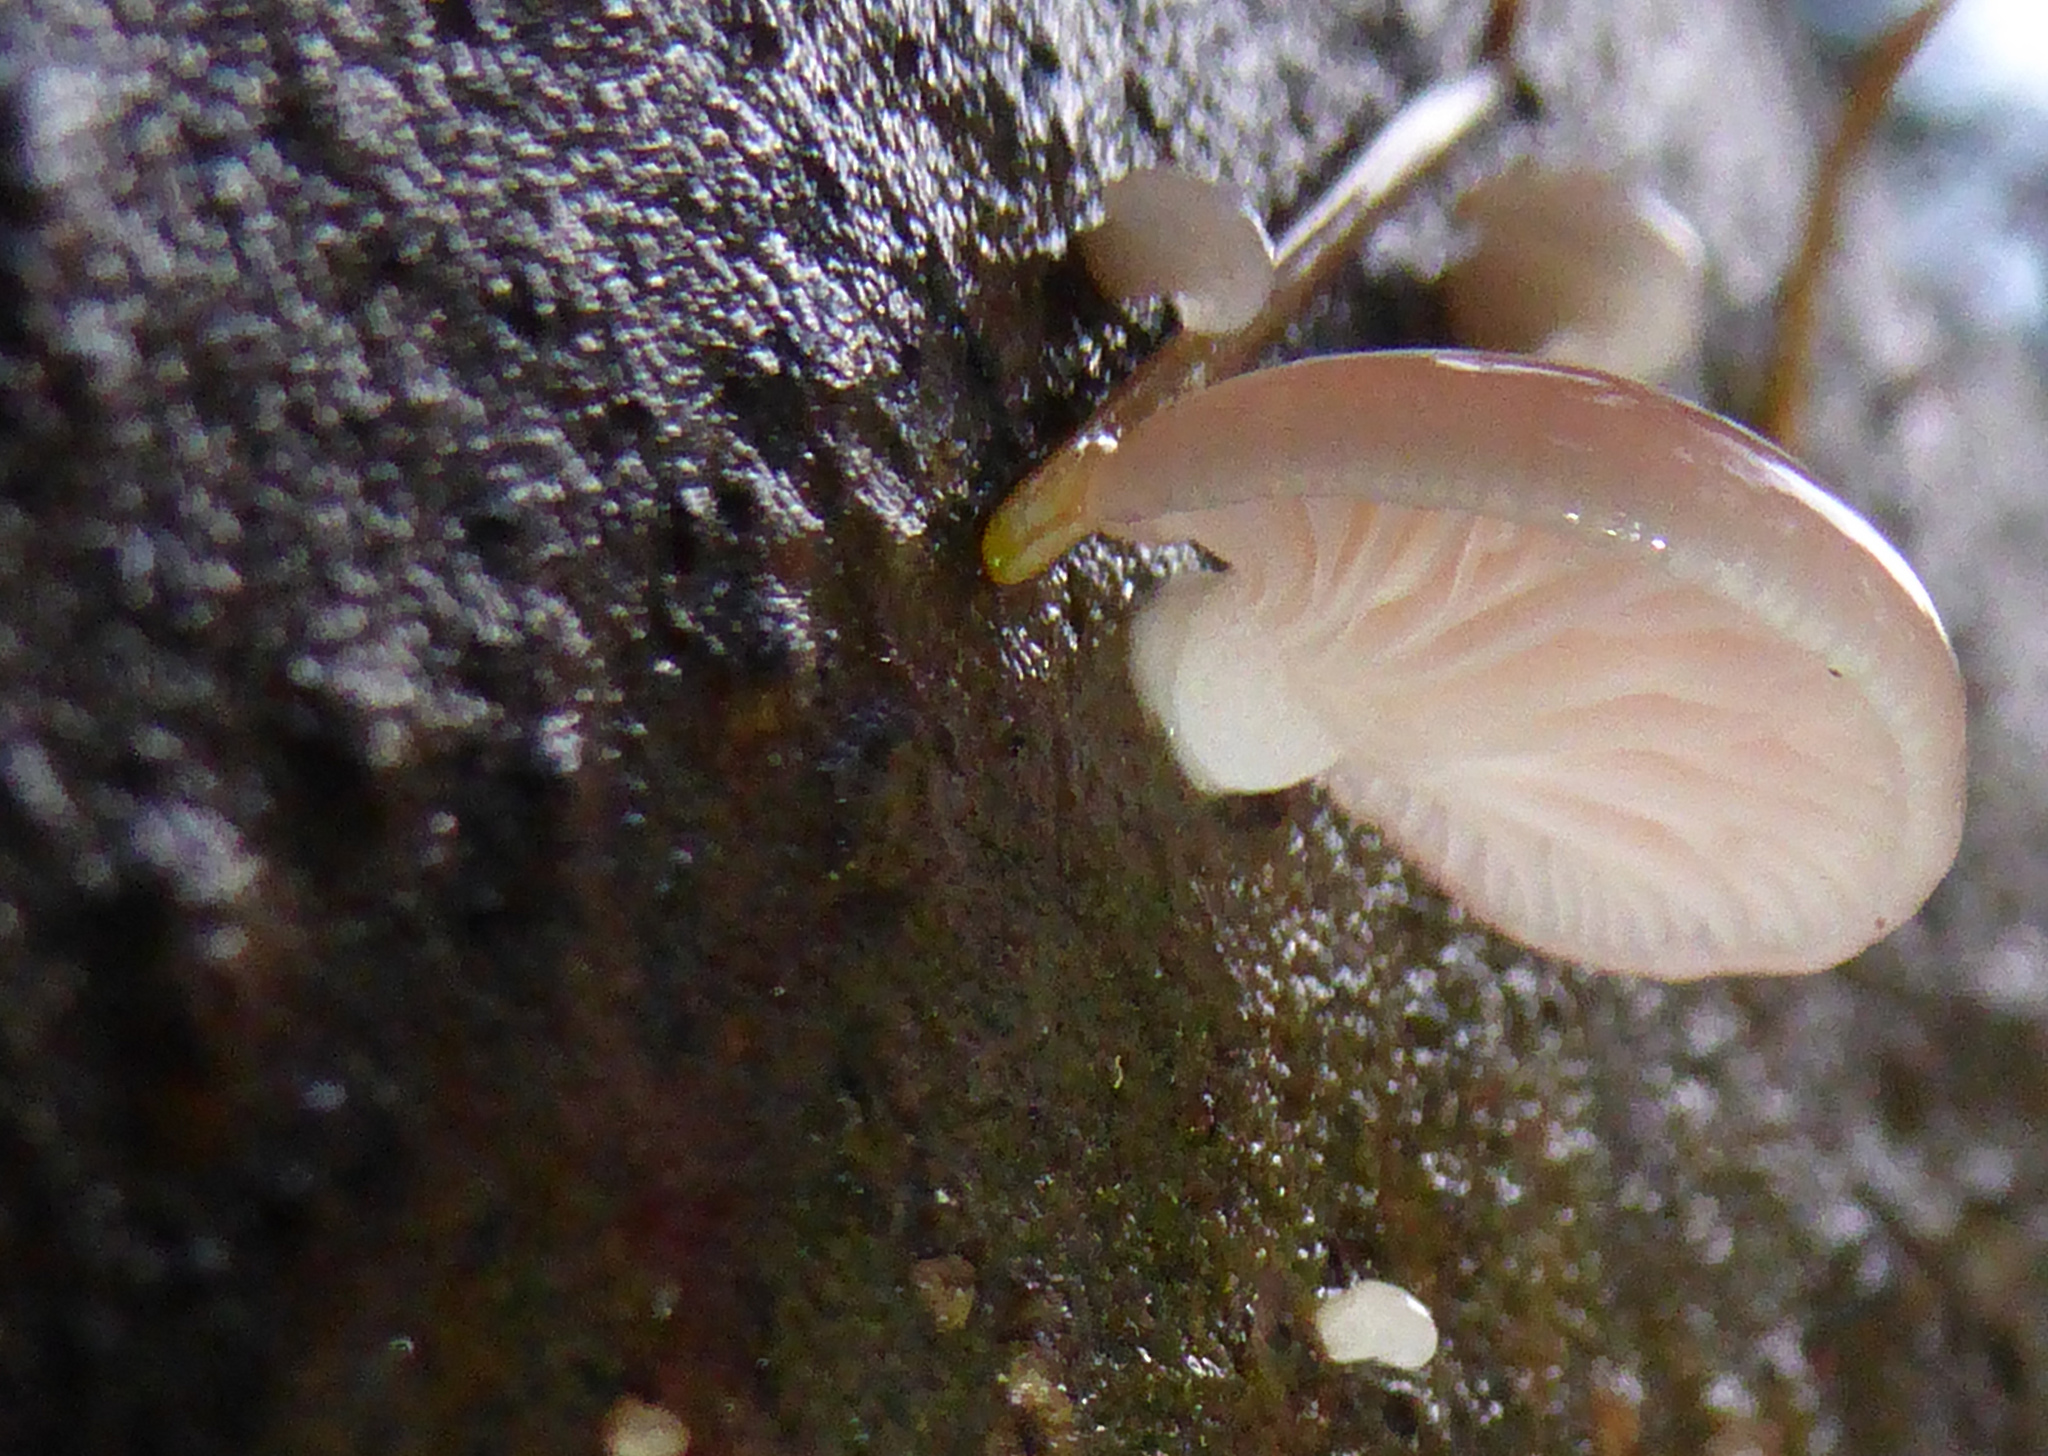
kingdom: Fungi
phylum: Basidiomycota
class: Agaricomycetes
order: Agaricales
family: Mycenaceae
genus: Panellus
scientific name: Panellus longinquus
